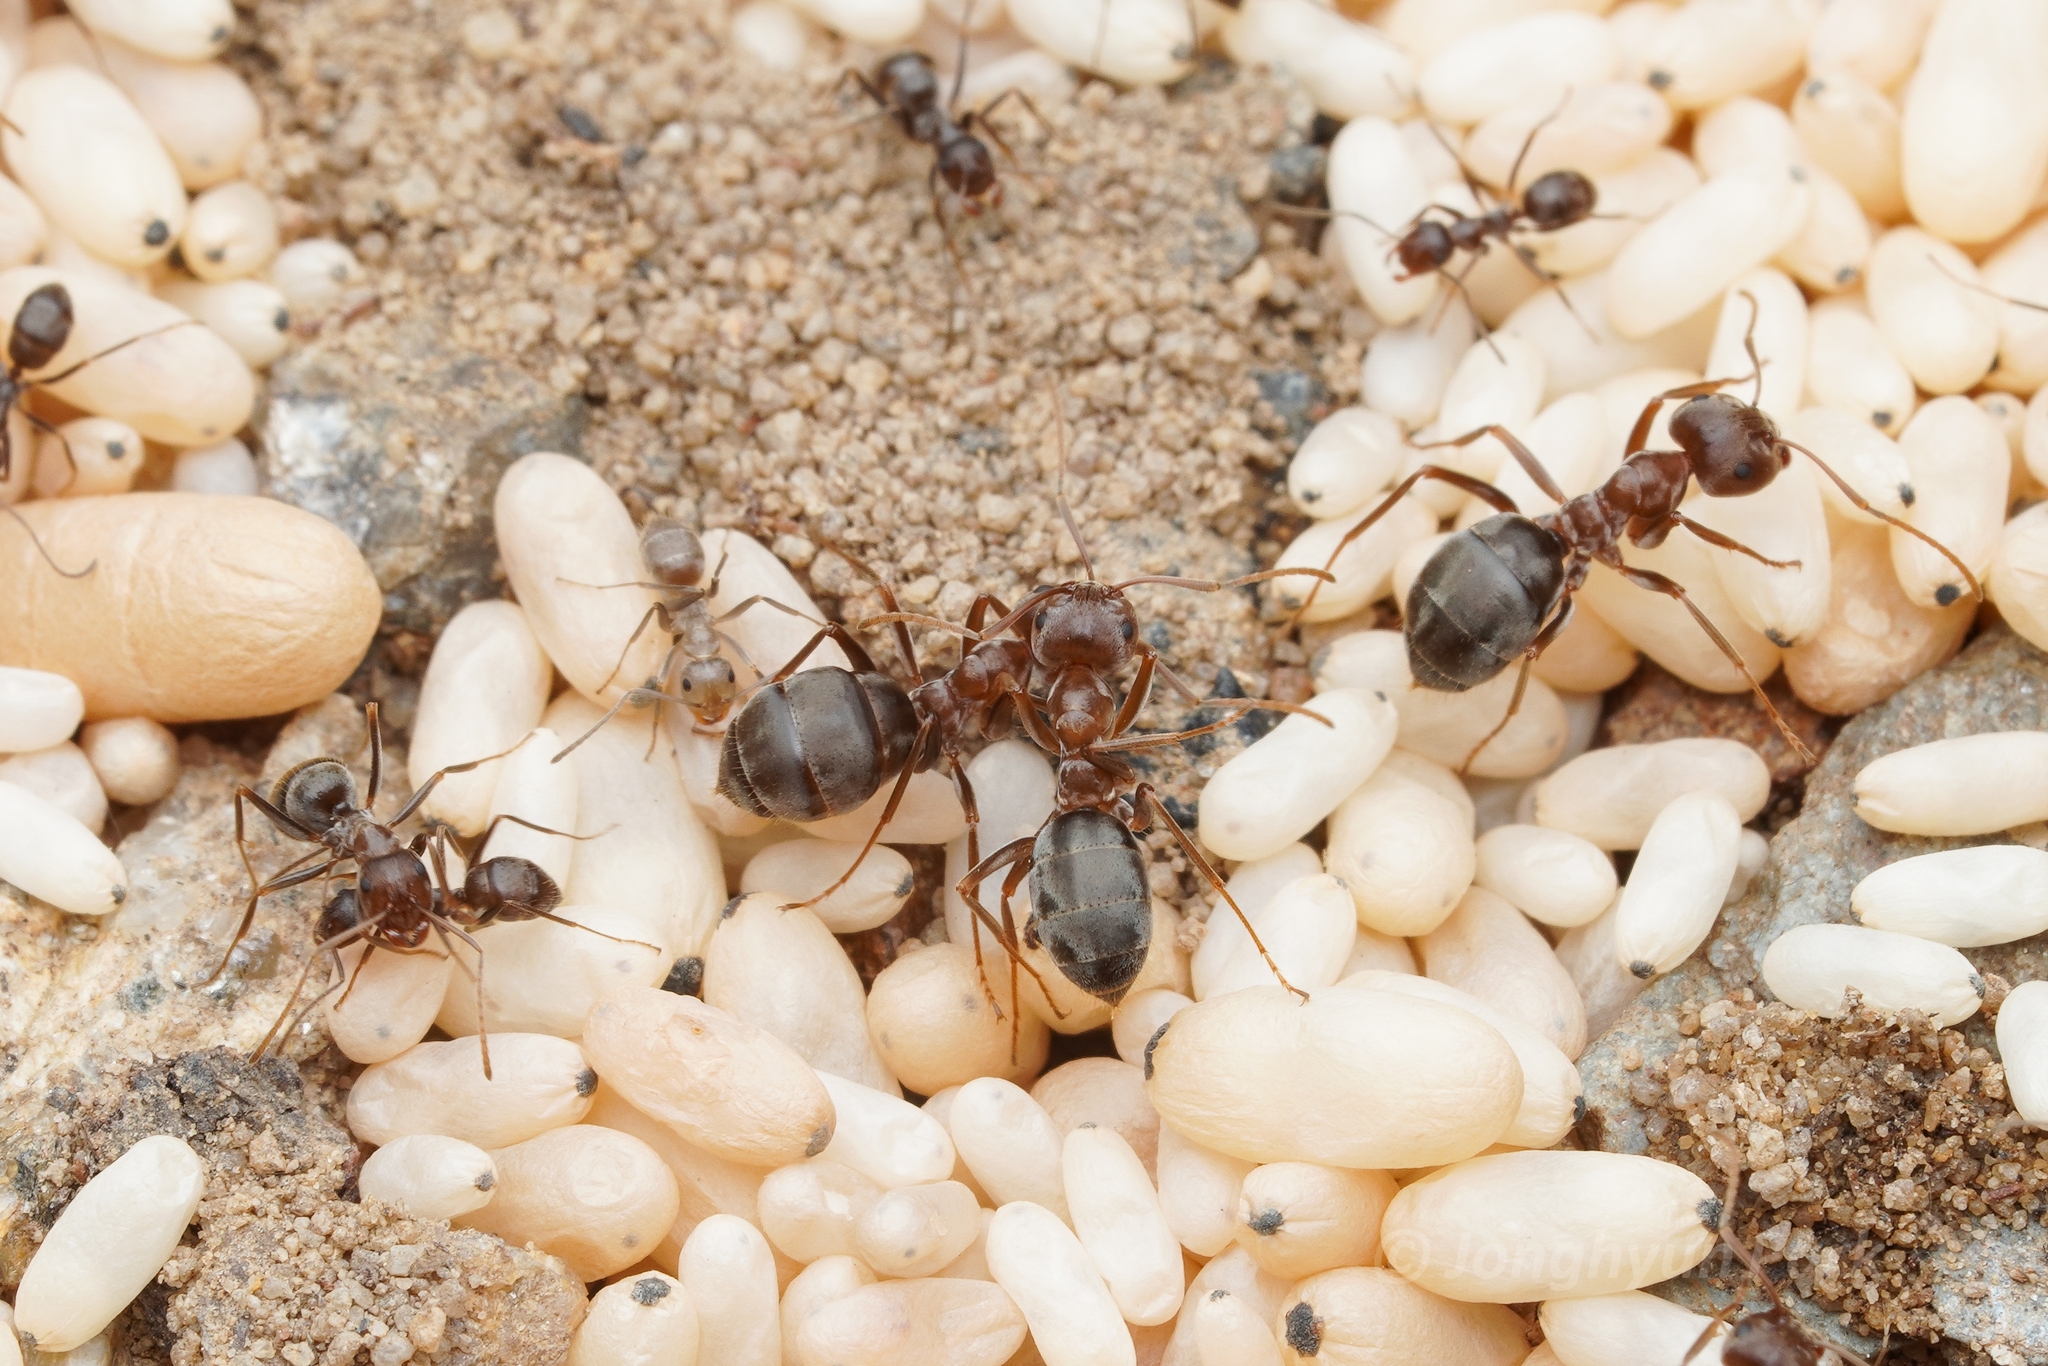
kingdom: Animalia
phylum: Arthropoda
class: Insecta
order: Hymenoptera
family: Formicidae
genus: Anoplolepis
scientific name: Anoplolepis fallax
